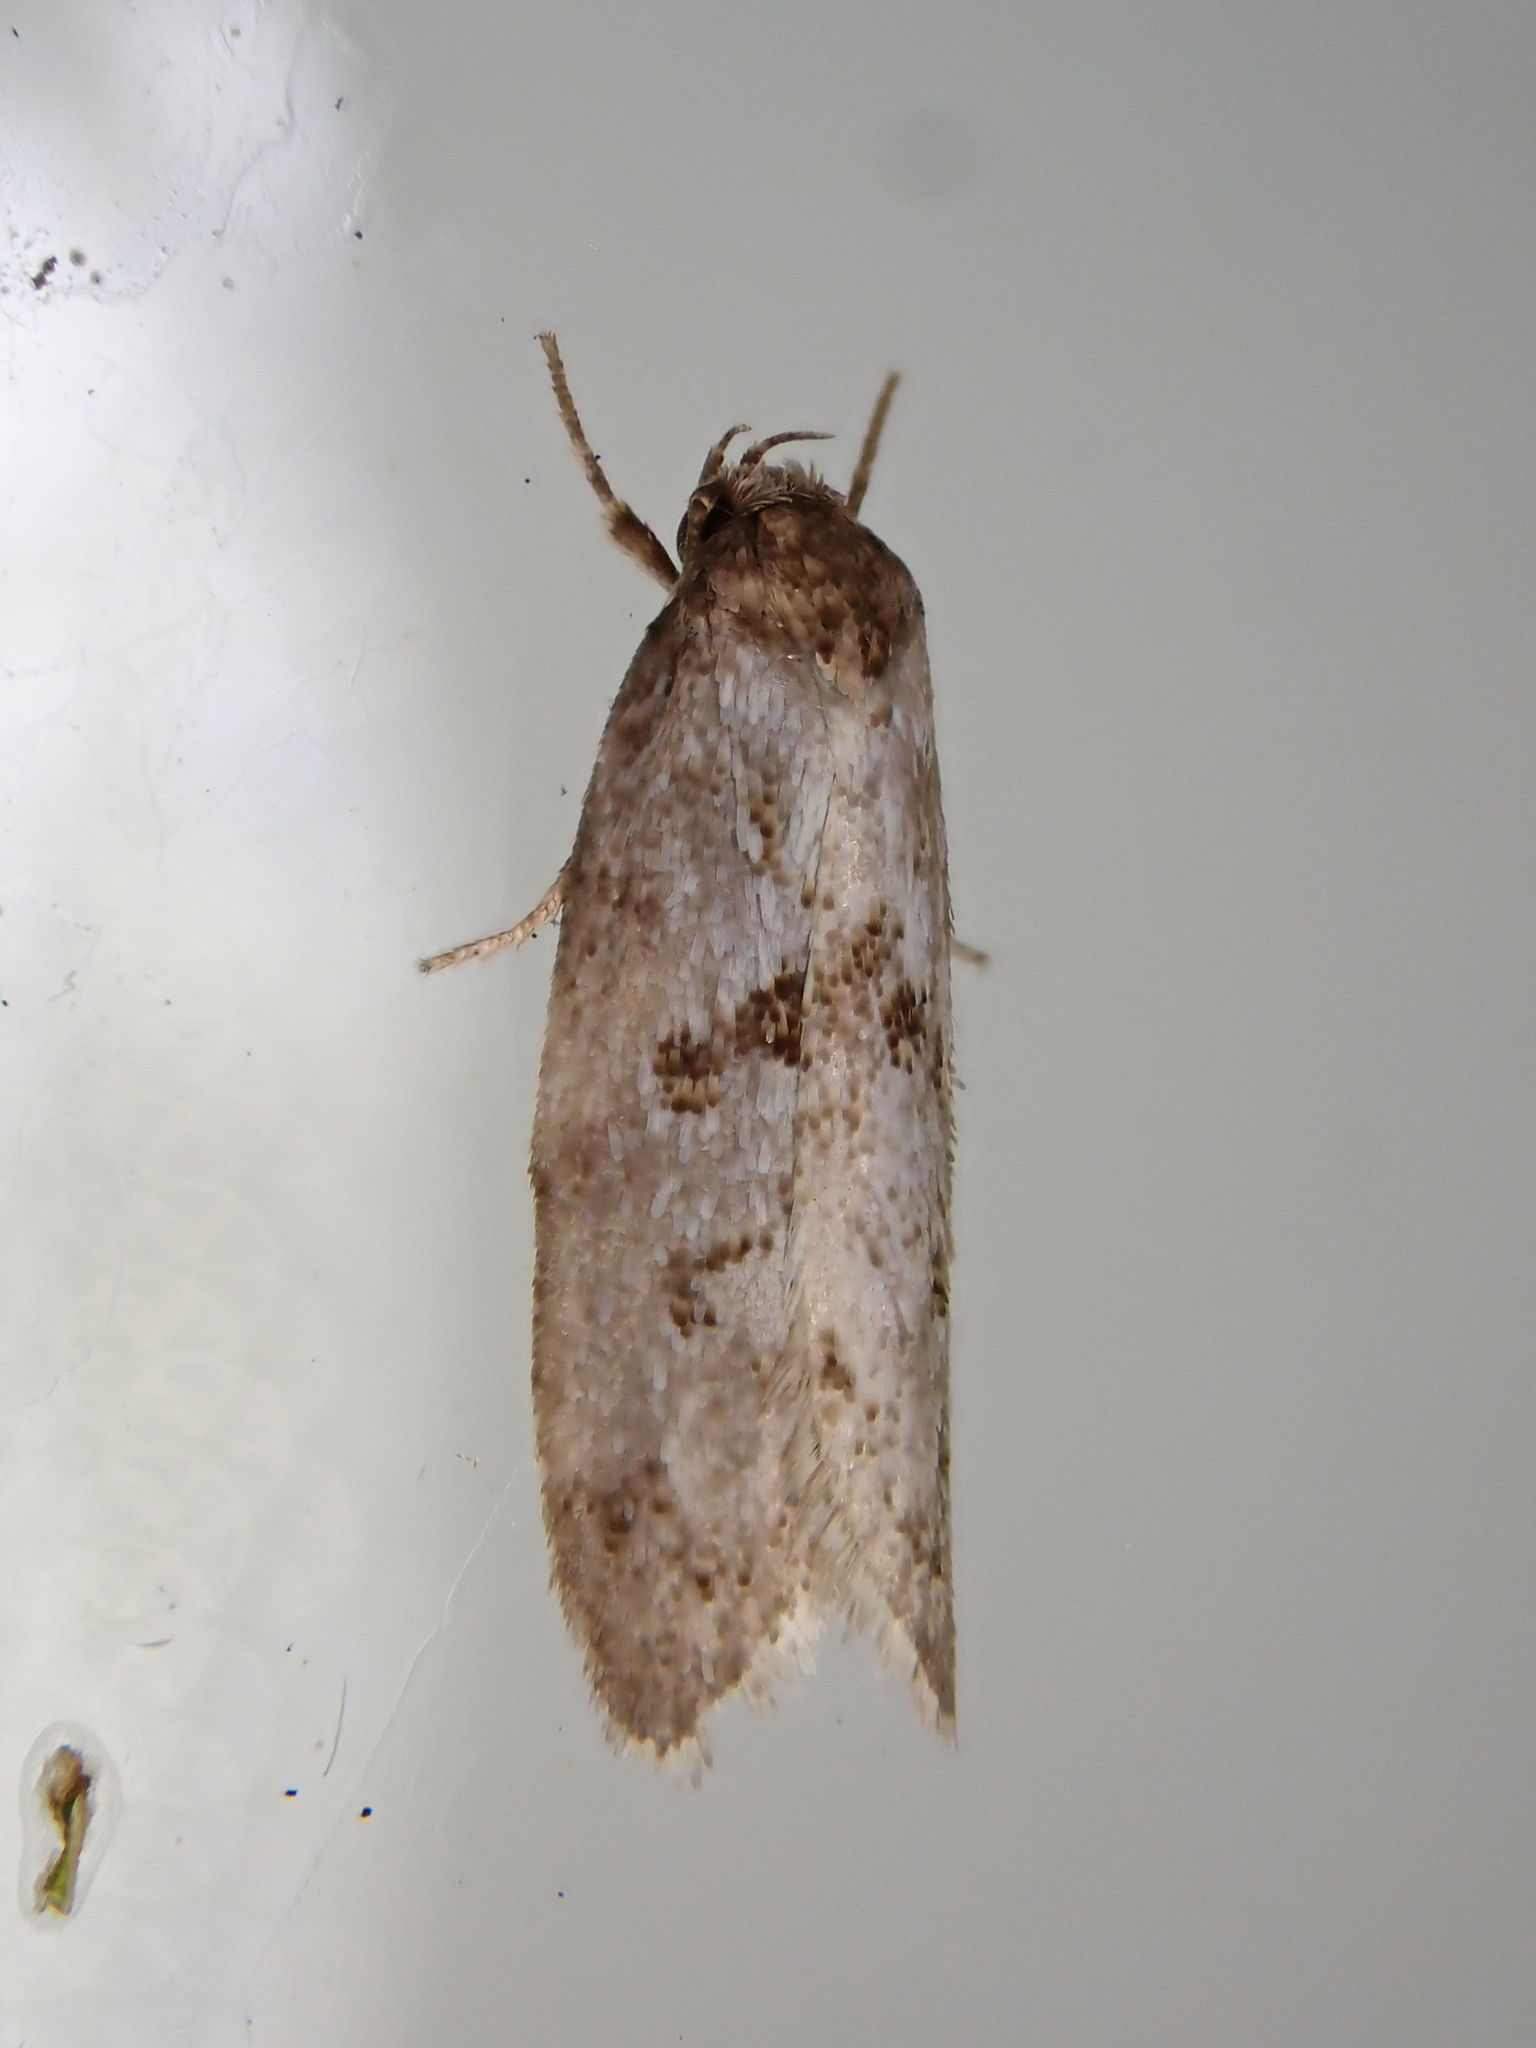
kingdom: Animalia
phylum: Arthropoda
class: Insecta
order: Lepidoptera
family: Oecophoridae
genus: Tingena
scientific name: Tingena clarkei
